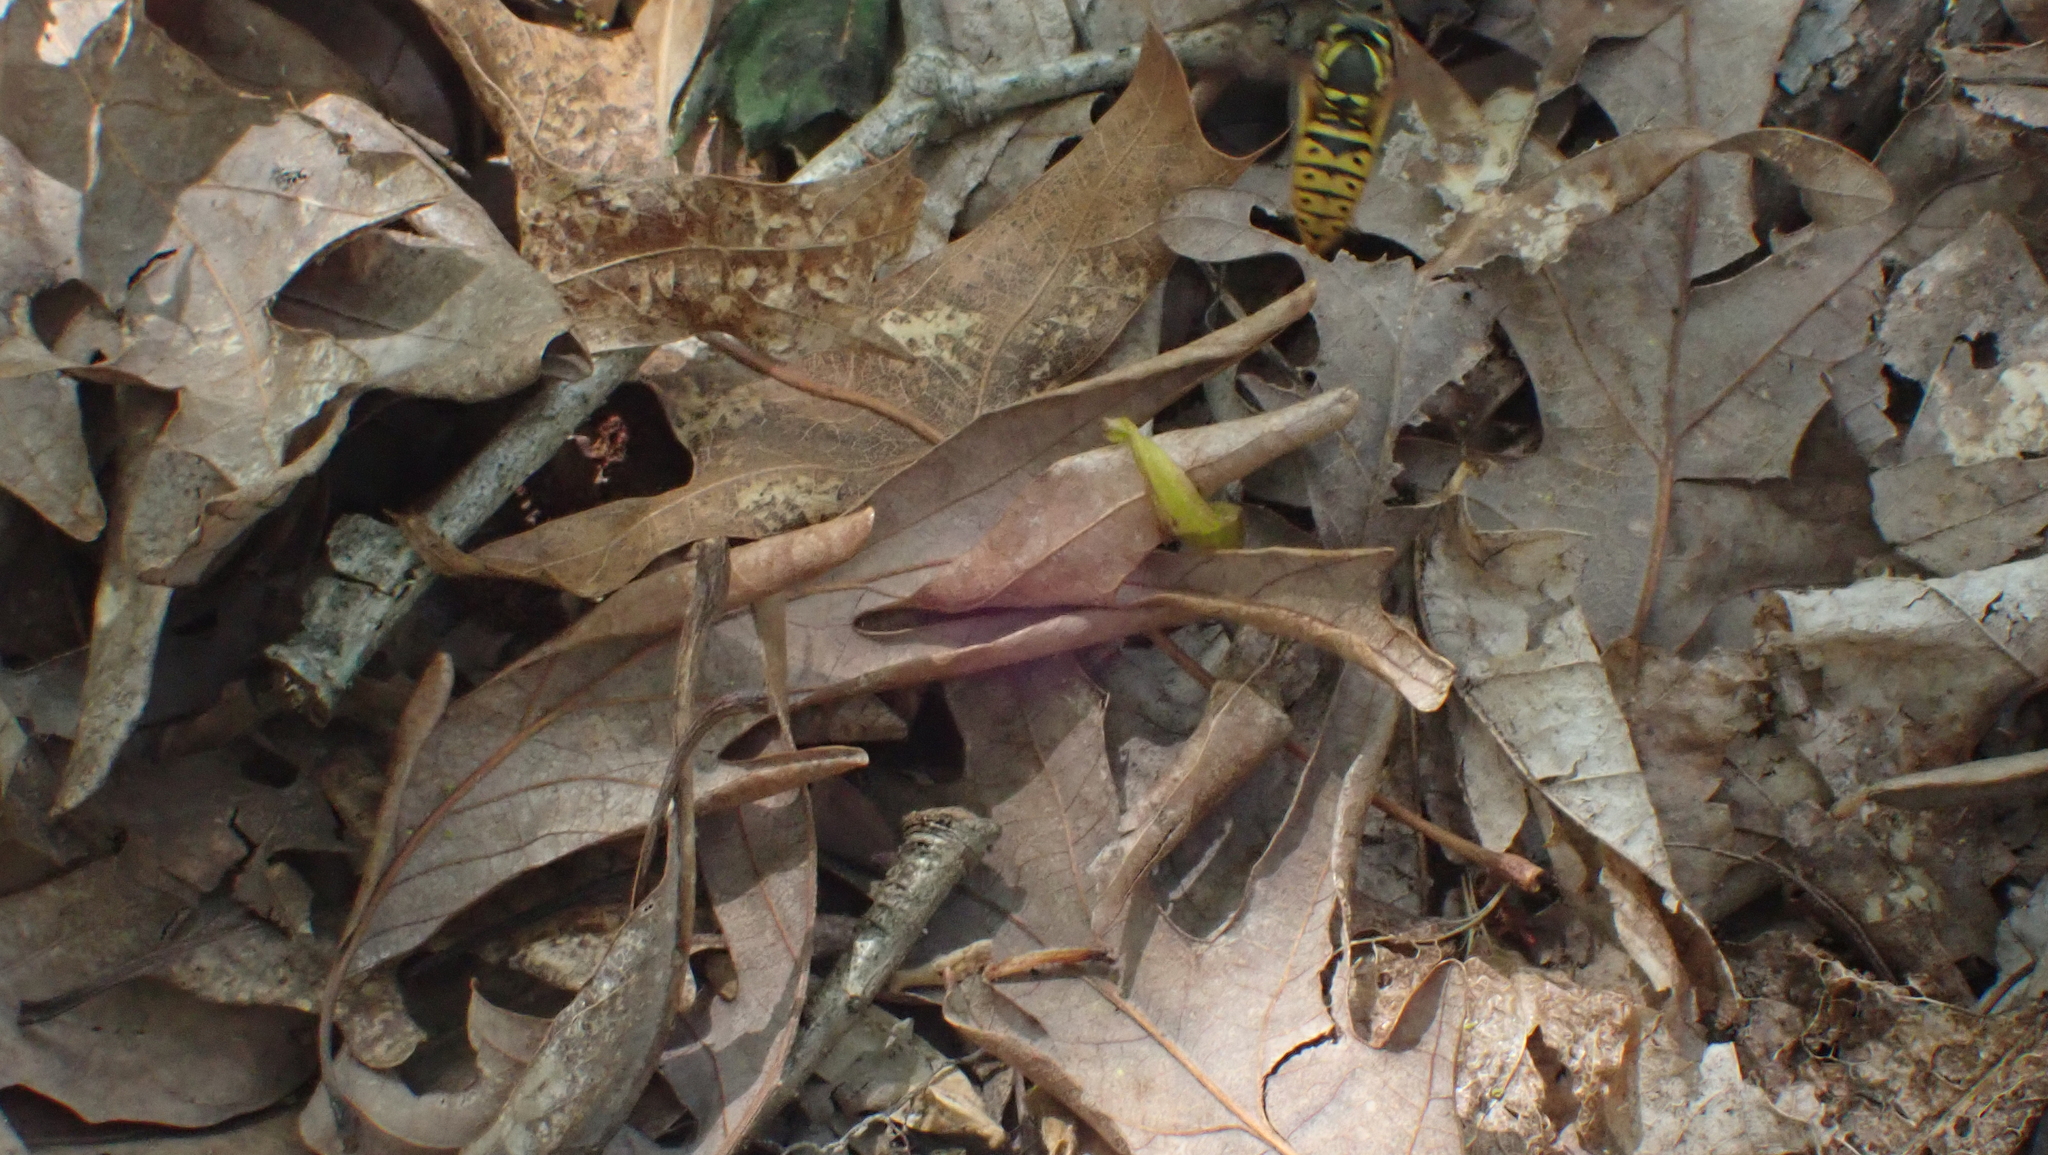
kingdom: Animalia
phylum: Arthropoda
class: Insecta
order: Hymenoptera
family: Vespidae
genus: Vespula
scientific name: Vespula maculifrons
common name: Eastern yellowjacket
